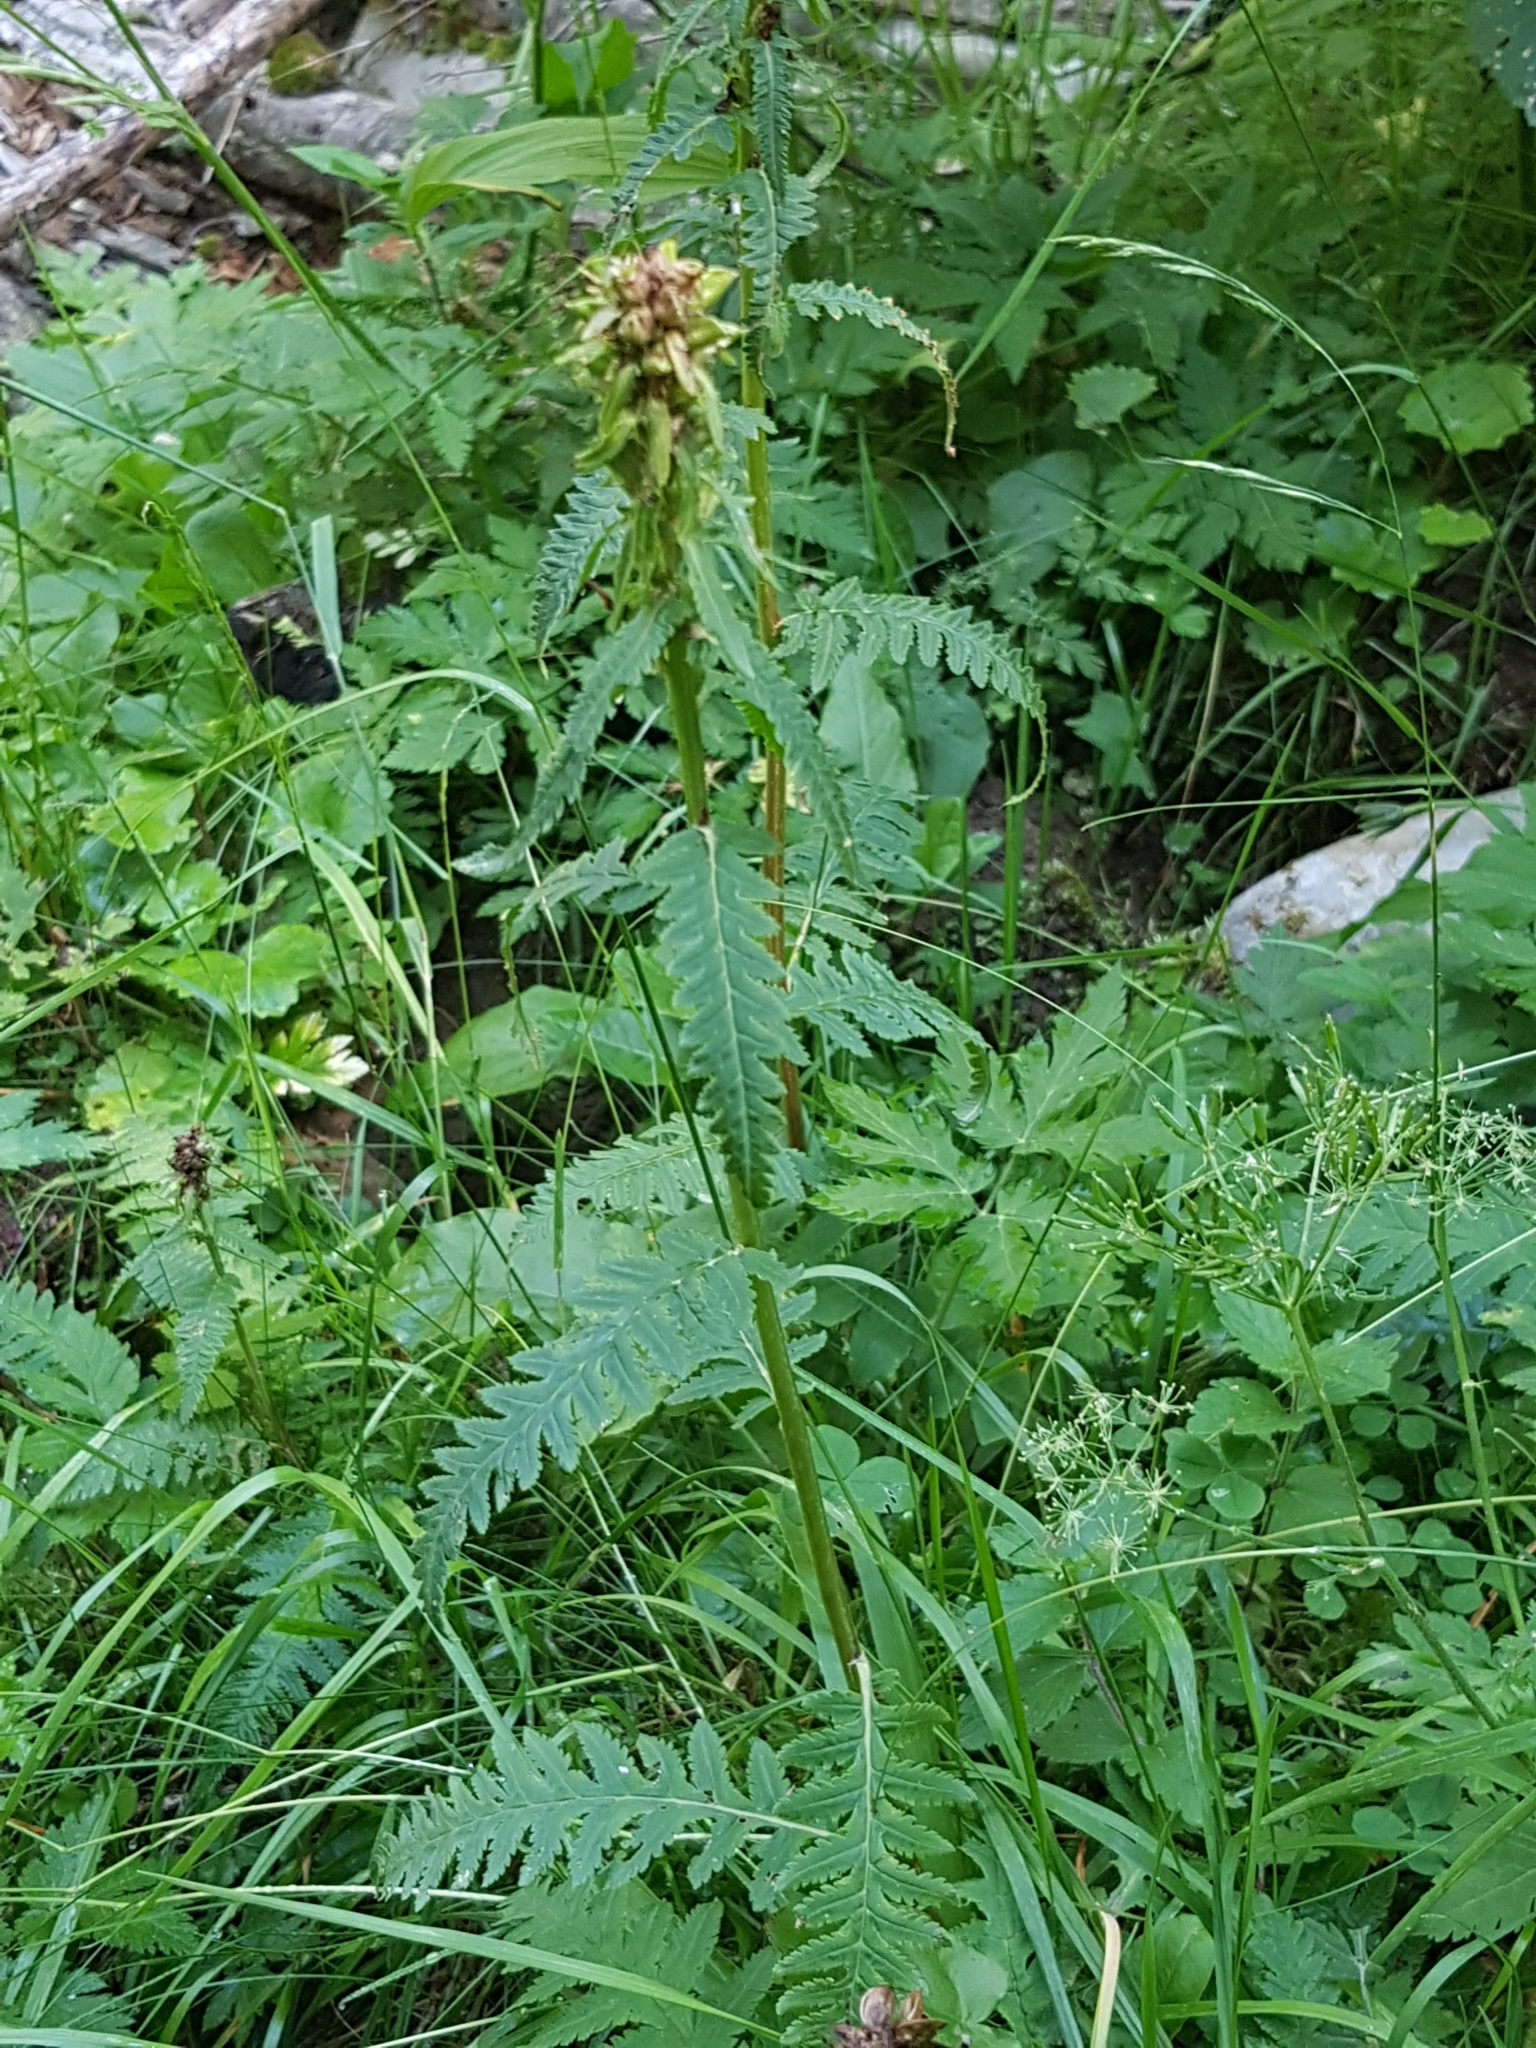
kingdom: Plantae
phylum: Tracheophyta
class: Magnoliopsida
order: Lamiales
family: Orobanchaceae
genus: Pedicularis
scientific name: Pedicularis recutita
